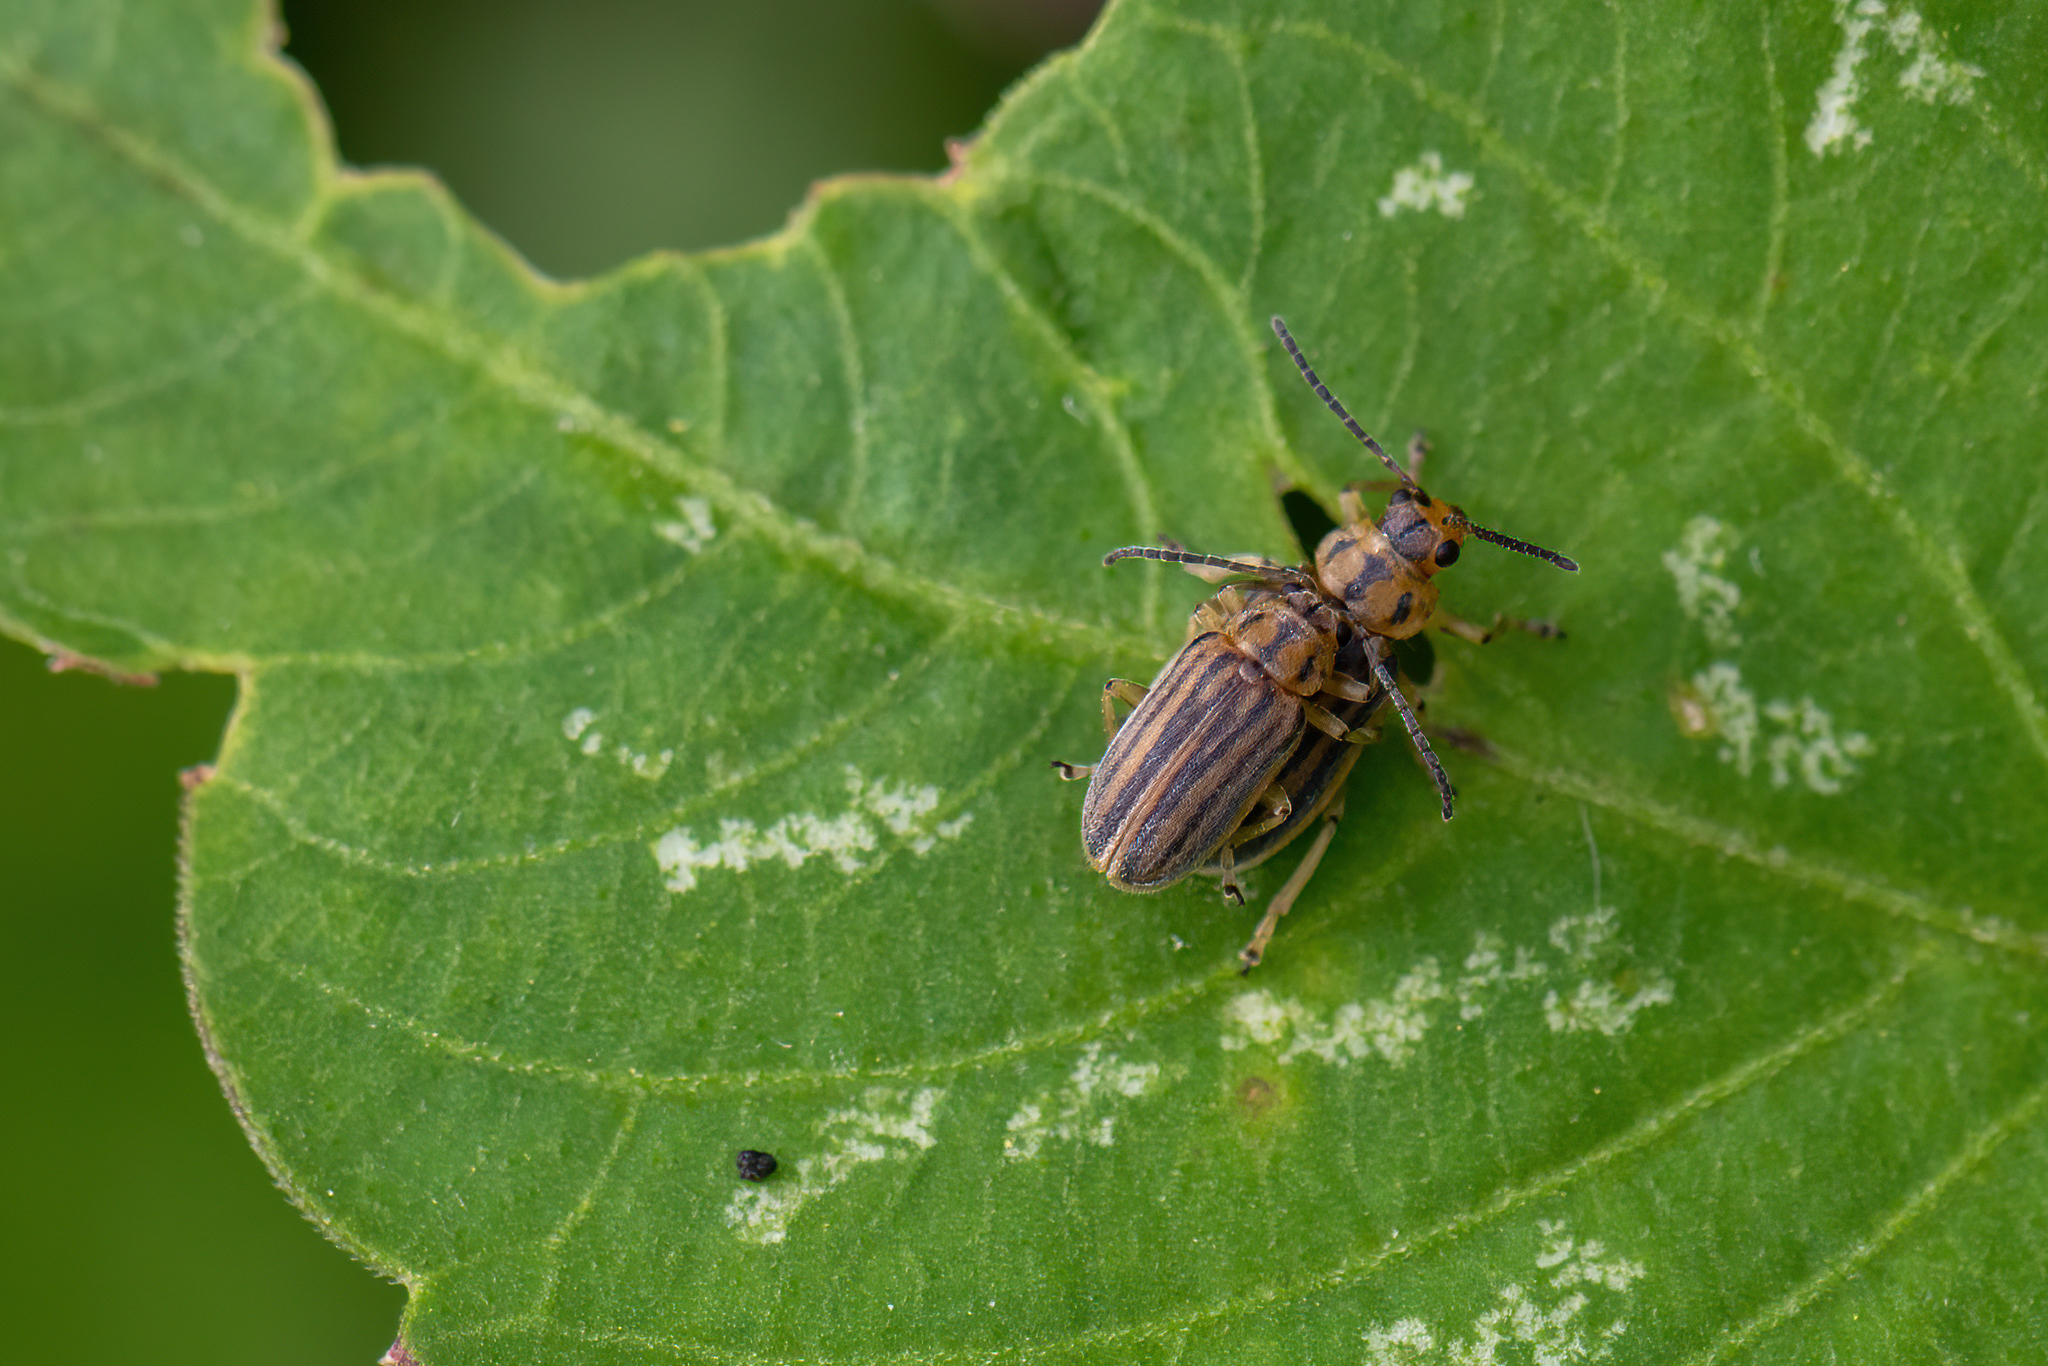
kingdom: Animalia
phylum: Arthropoda
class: Insecta
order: Coleoptera
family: Chrysomelidae
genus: Ophraella
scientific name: Ophraella slobodkini
